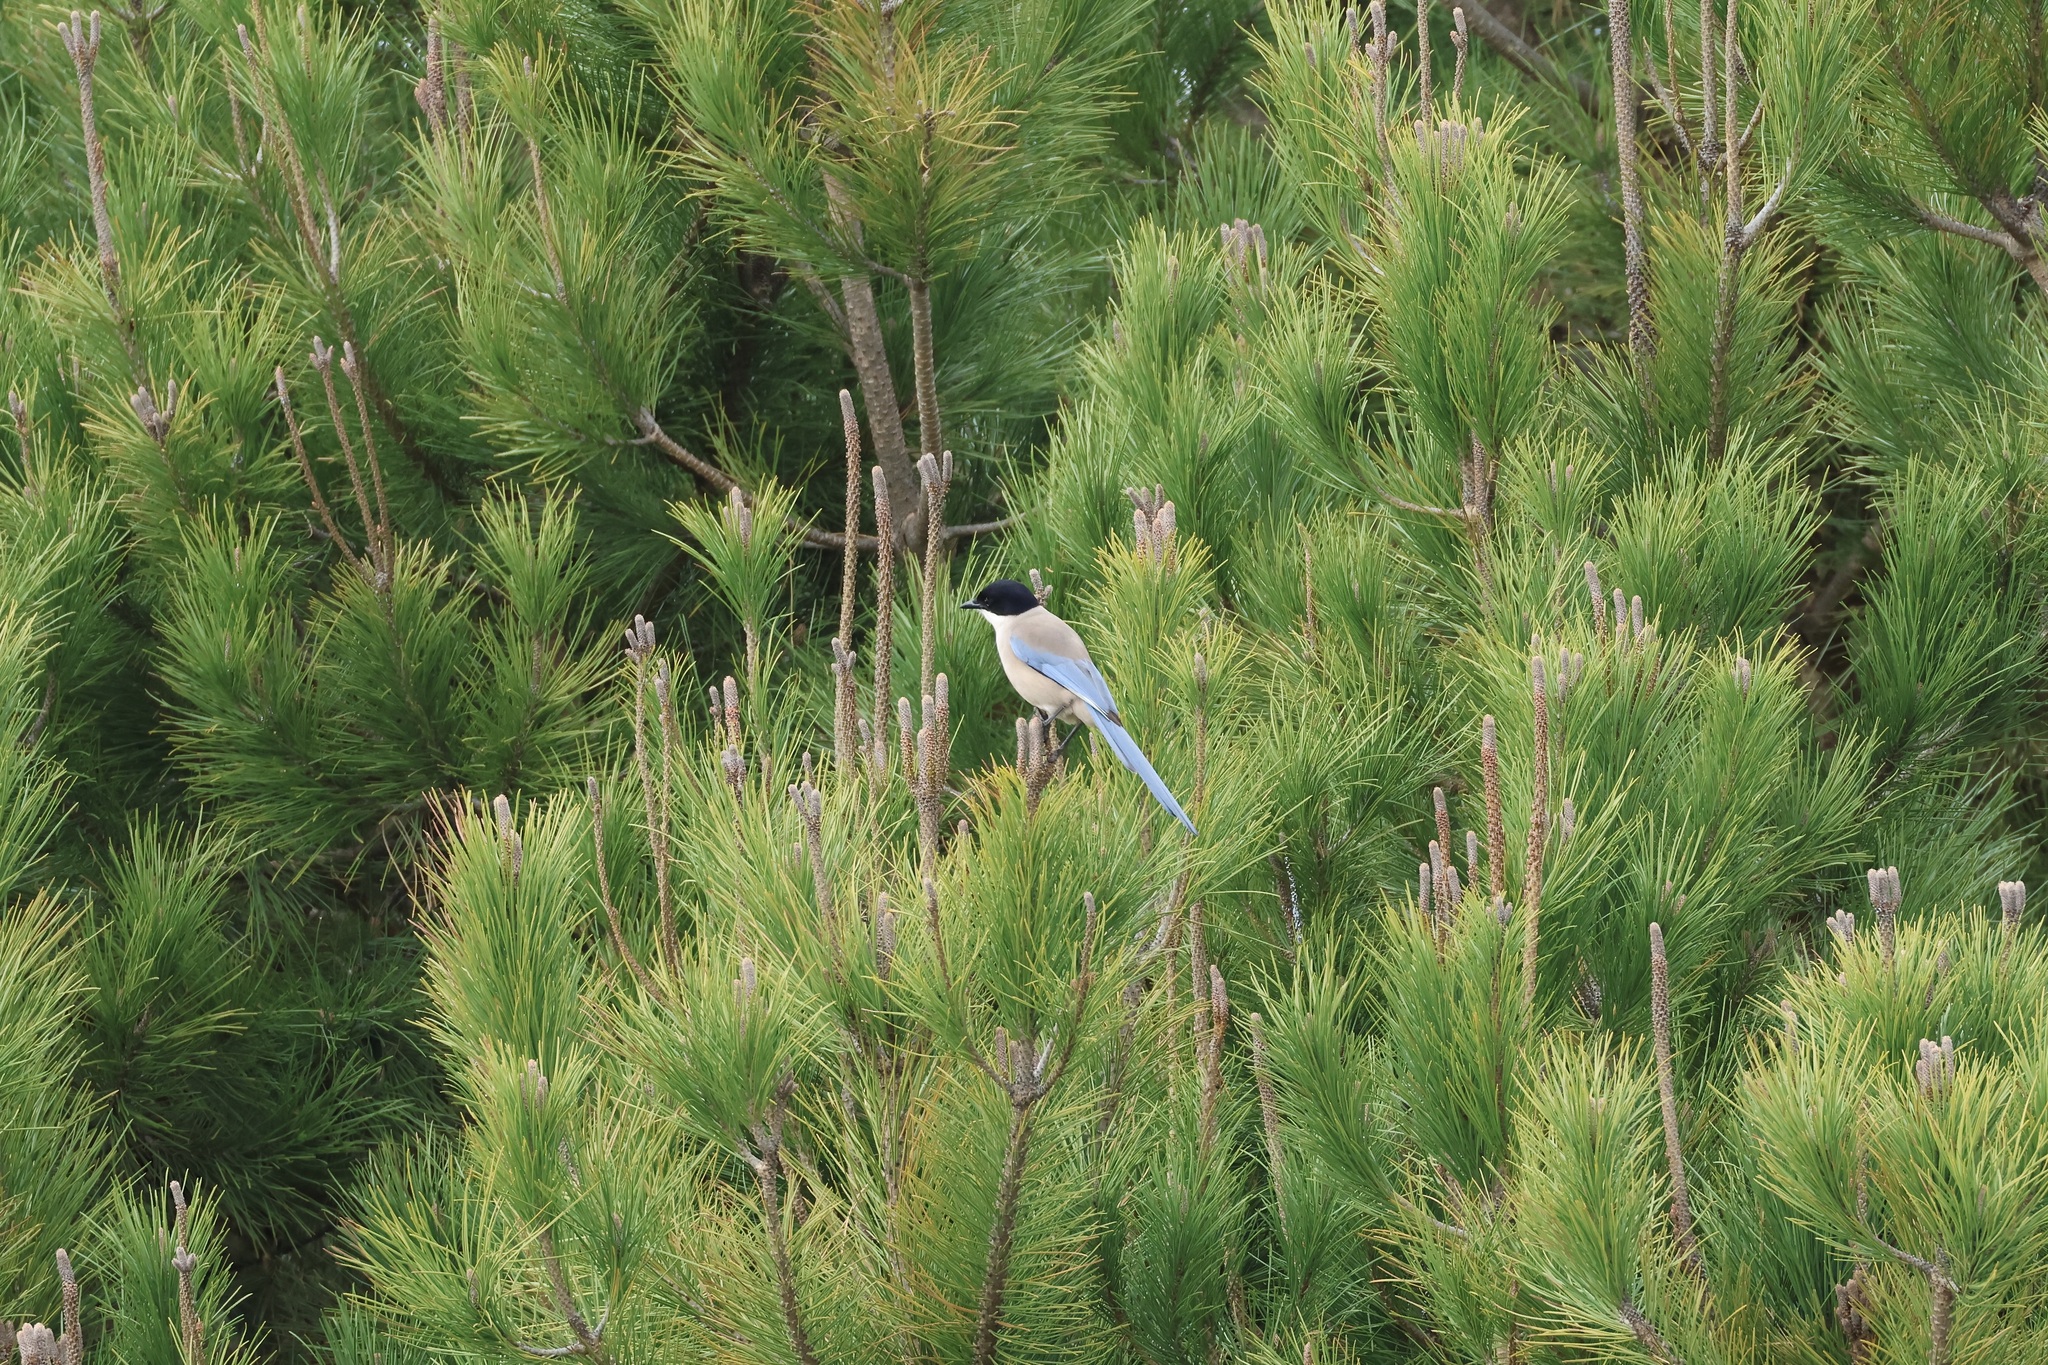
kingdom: Animalia
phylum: Chordata
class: Aves
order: Passeriformes
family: Corvidae
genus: Cyanopica
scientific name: Cyanopica cooki
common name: Iberian magpie
